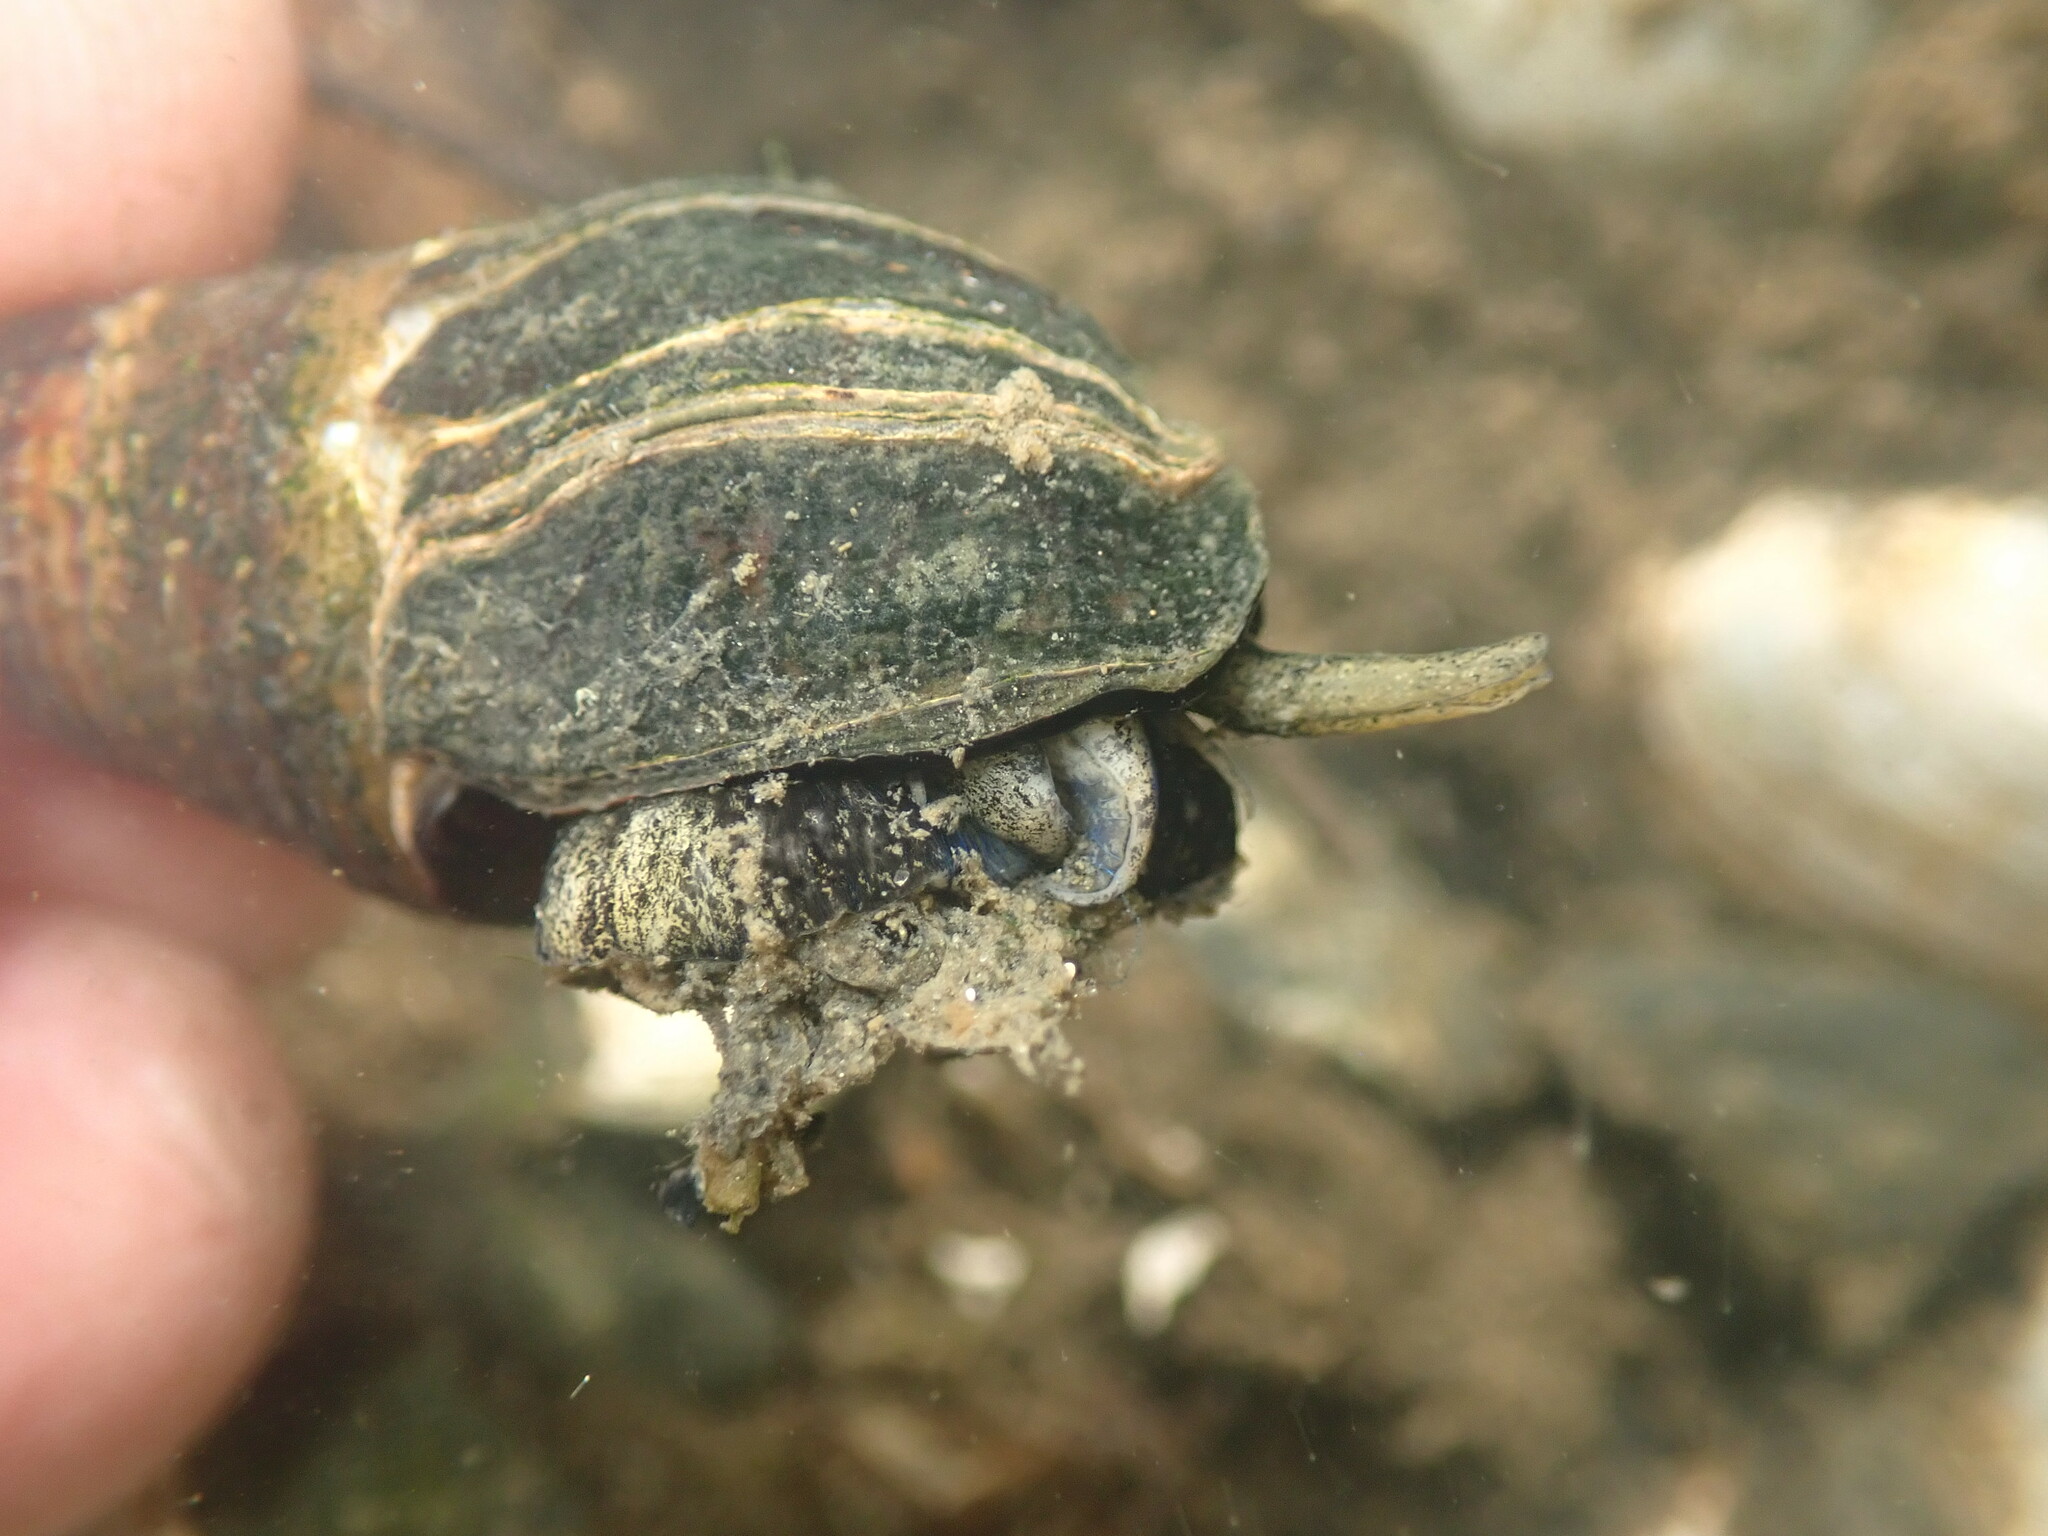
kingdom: Animalia
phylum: Mollusca
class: Gastropoda
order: Neogastropoda
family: Nassariidae
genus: Ilyanassa
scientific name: Ilyanassa obsoleta
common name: Eastern mudsnail
